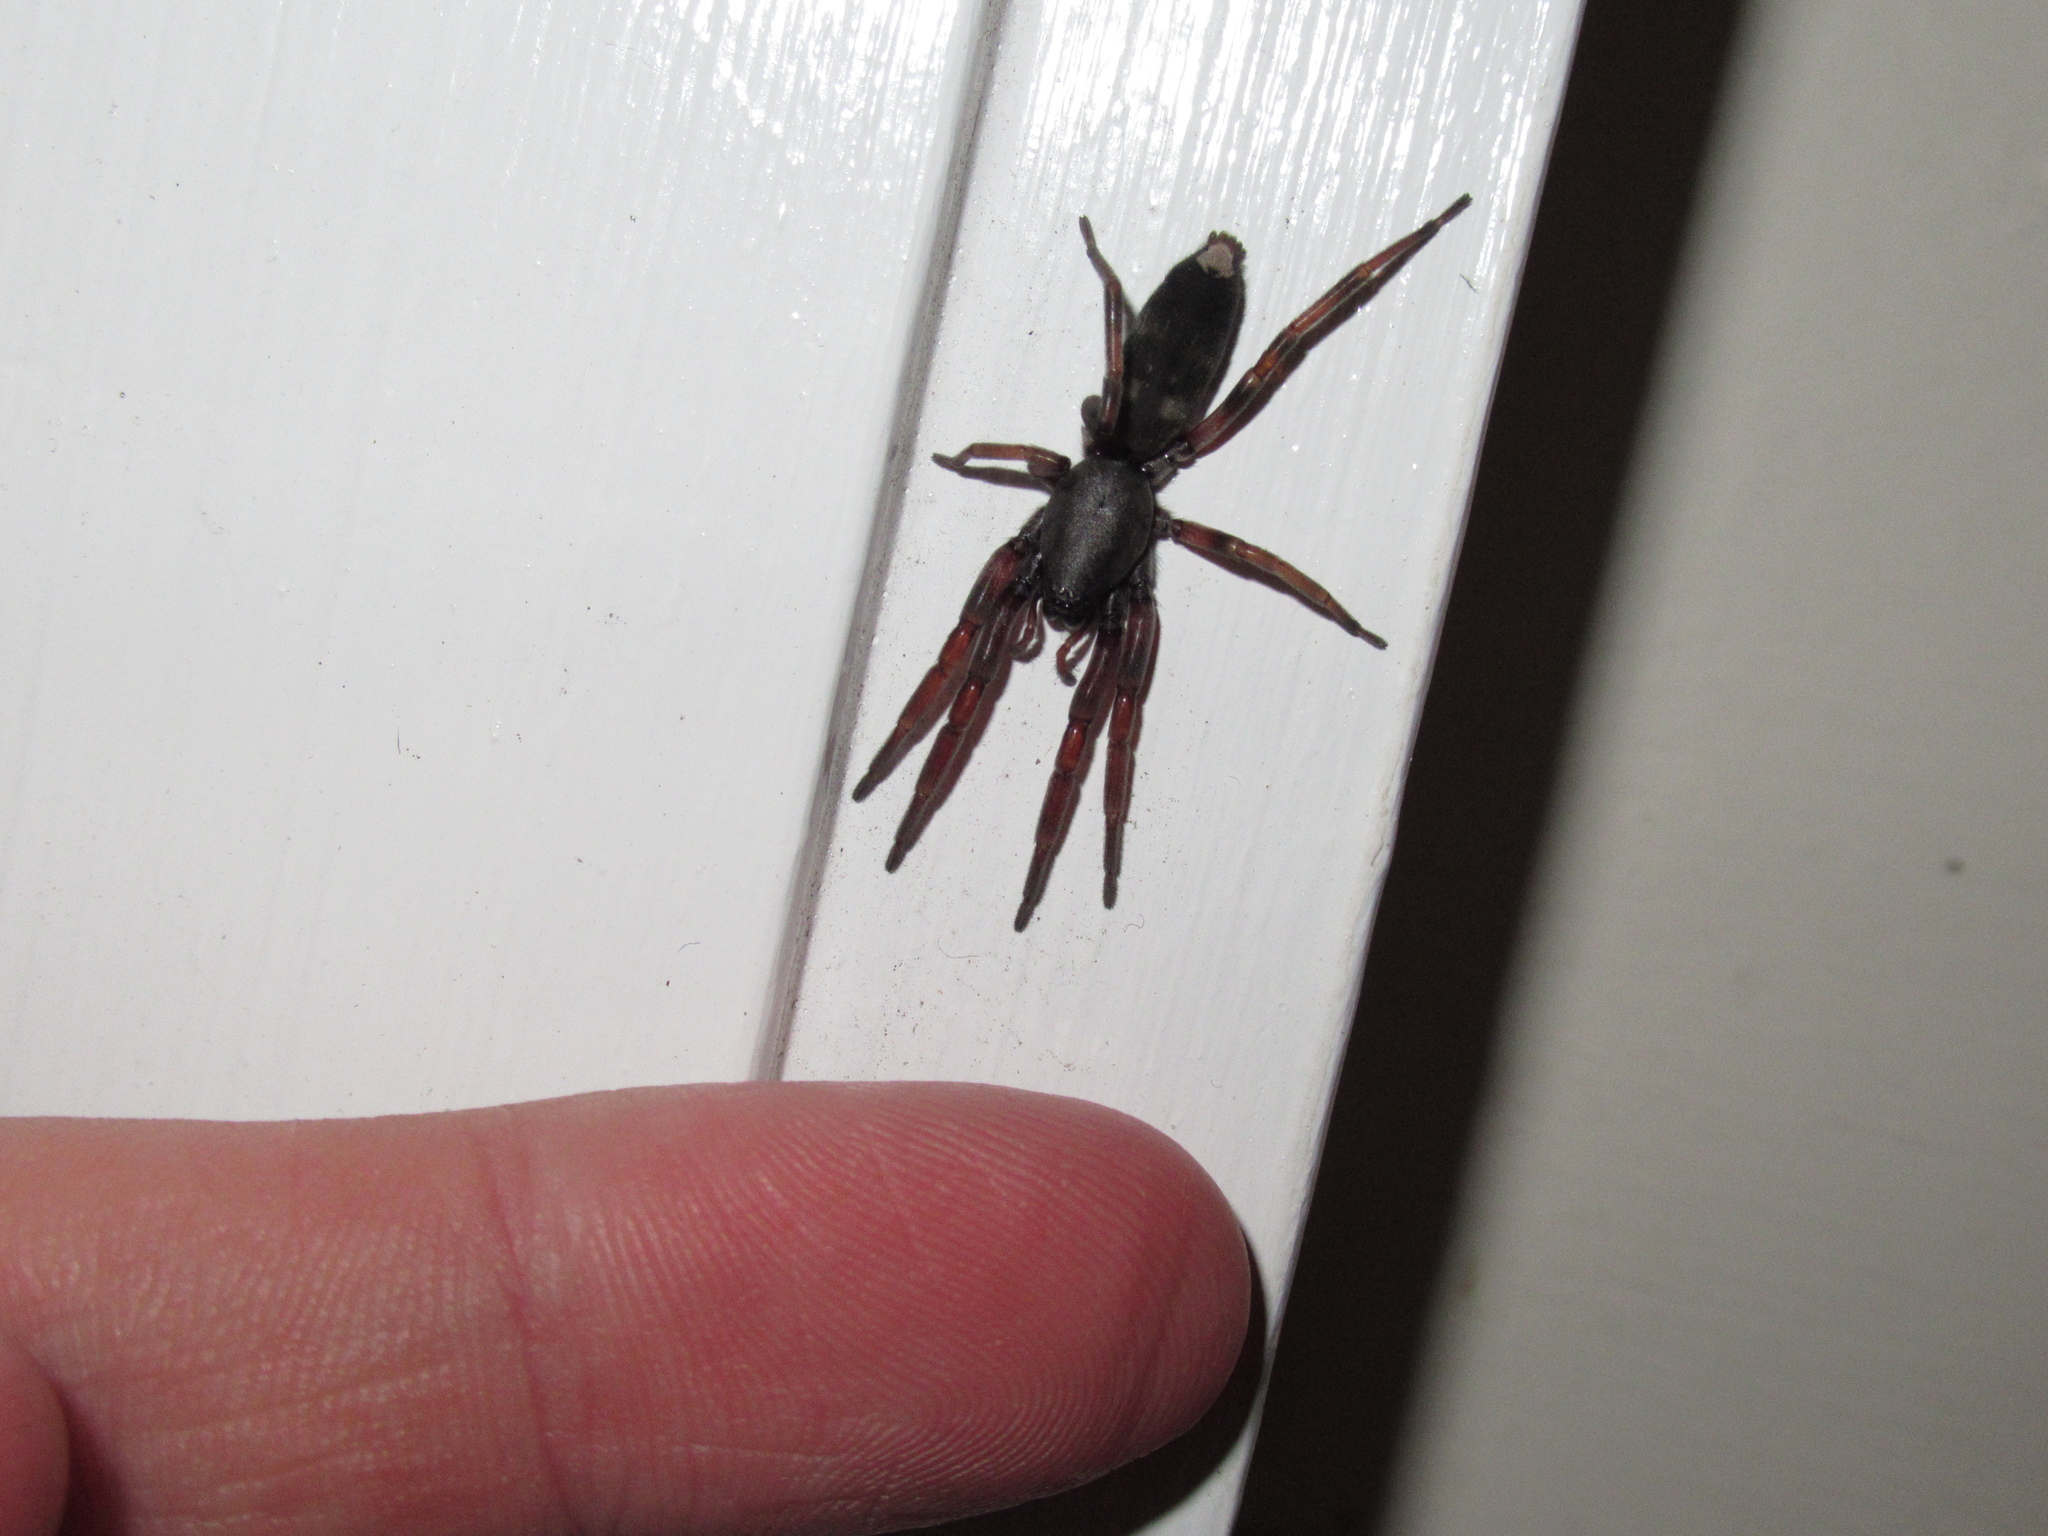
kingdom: Animalia
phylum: Arthropoda
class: Arachnida
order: Araneae
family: Lamponidae
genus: Lampona
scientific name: Lampona murina
